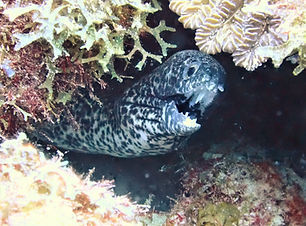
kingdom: Animalia
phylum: Chordata
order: Anguilliformes
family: Muraenidae
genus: Gymnothorax
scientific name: Gymnothorax moringa
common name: Spotted moray
